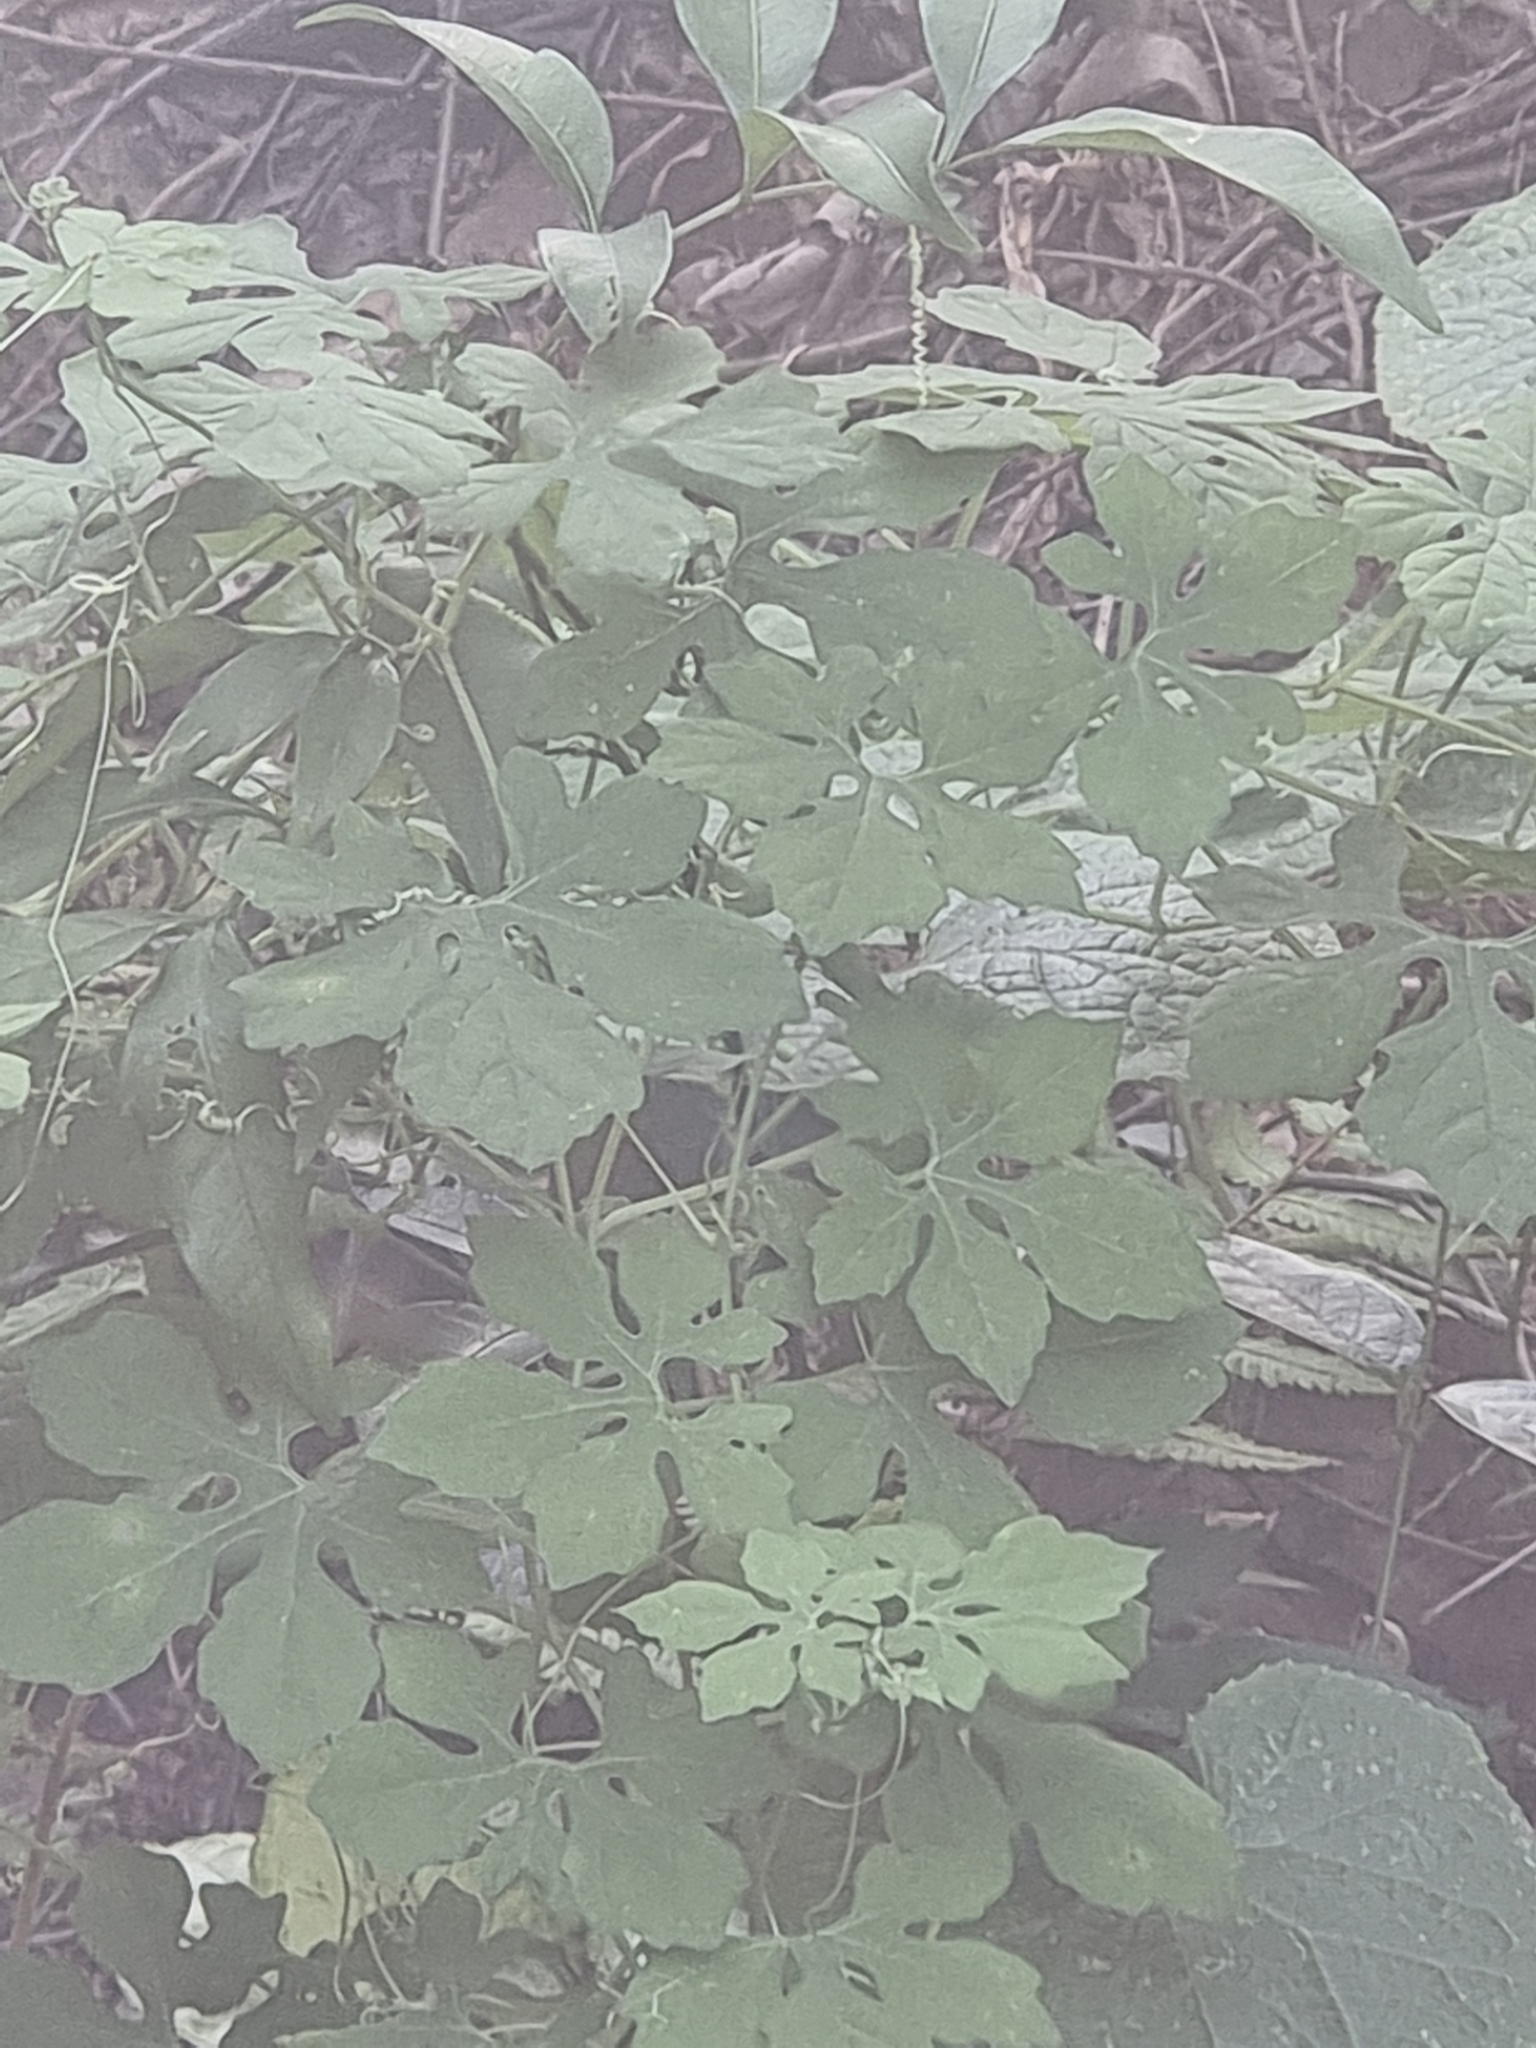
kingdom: Plantae
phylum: Tracheophyta
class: Magnoliopsida
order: Cucurbitales
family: Cucurbitaceae
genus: Momordica
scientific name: Momordica charantia
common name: Balsampear
